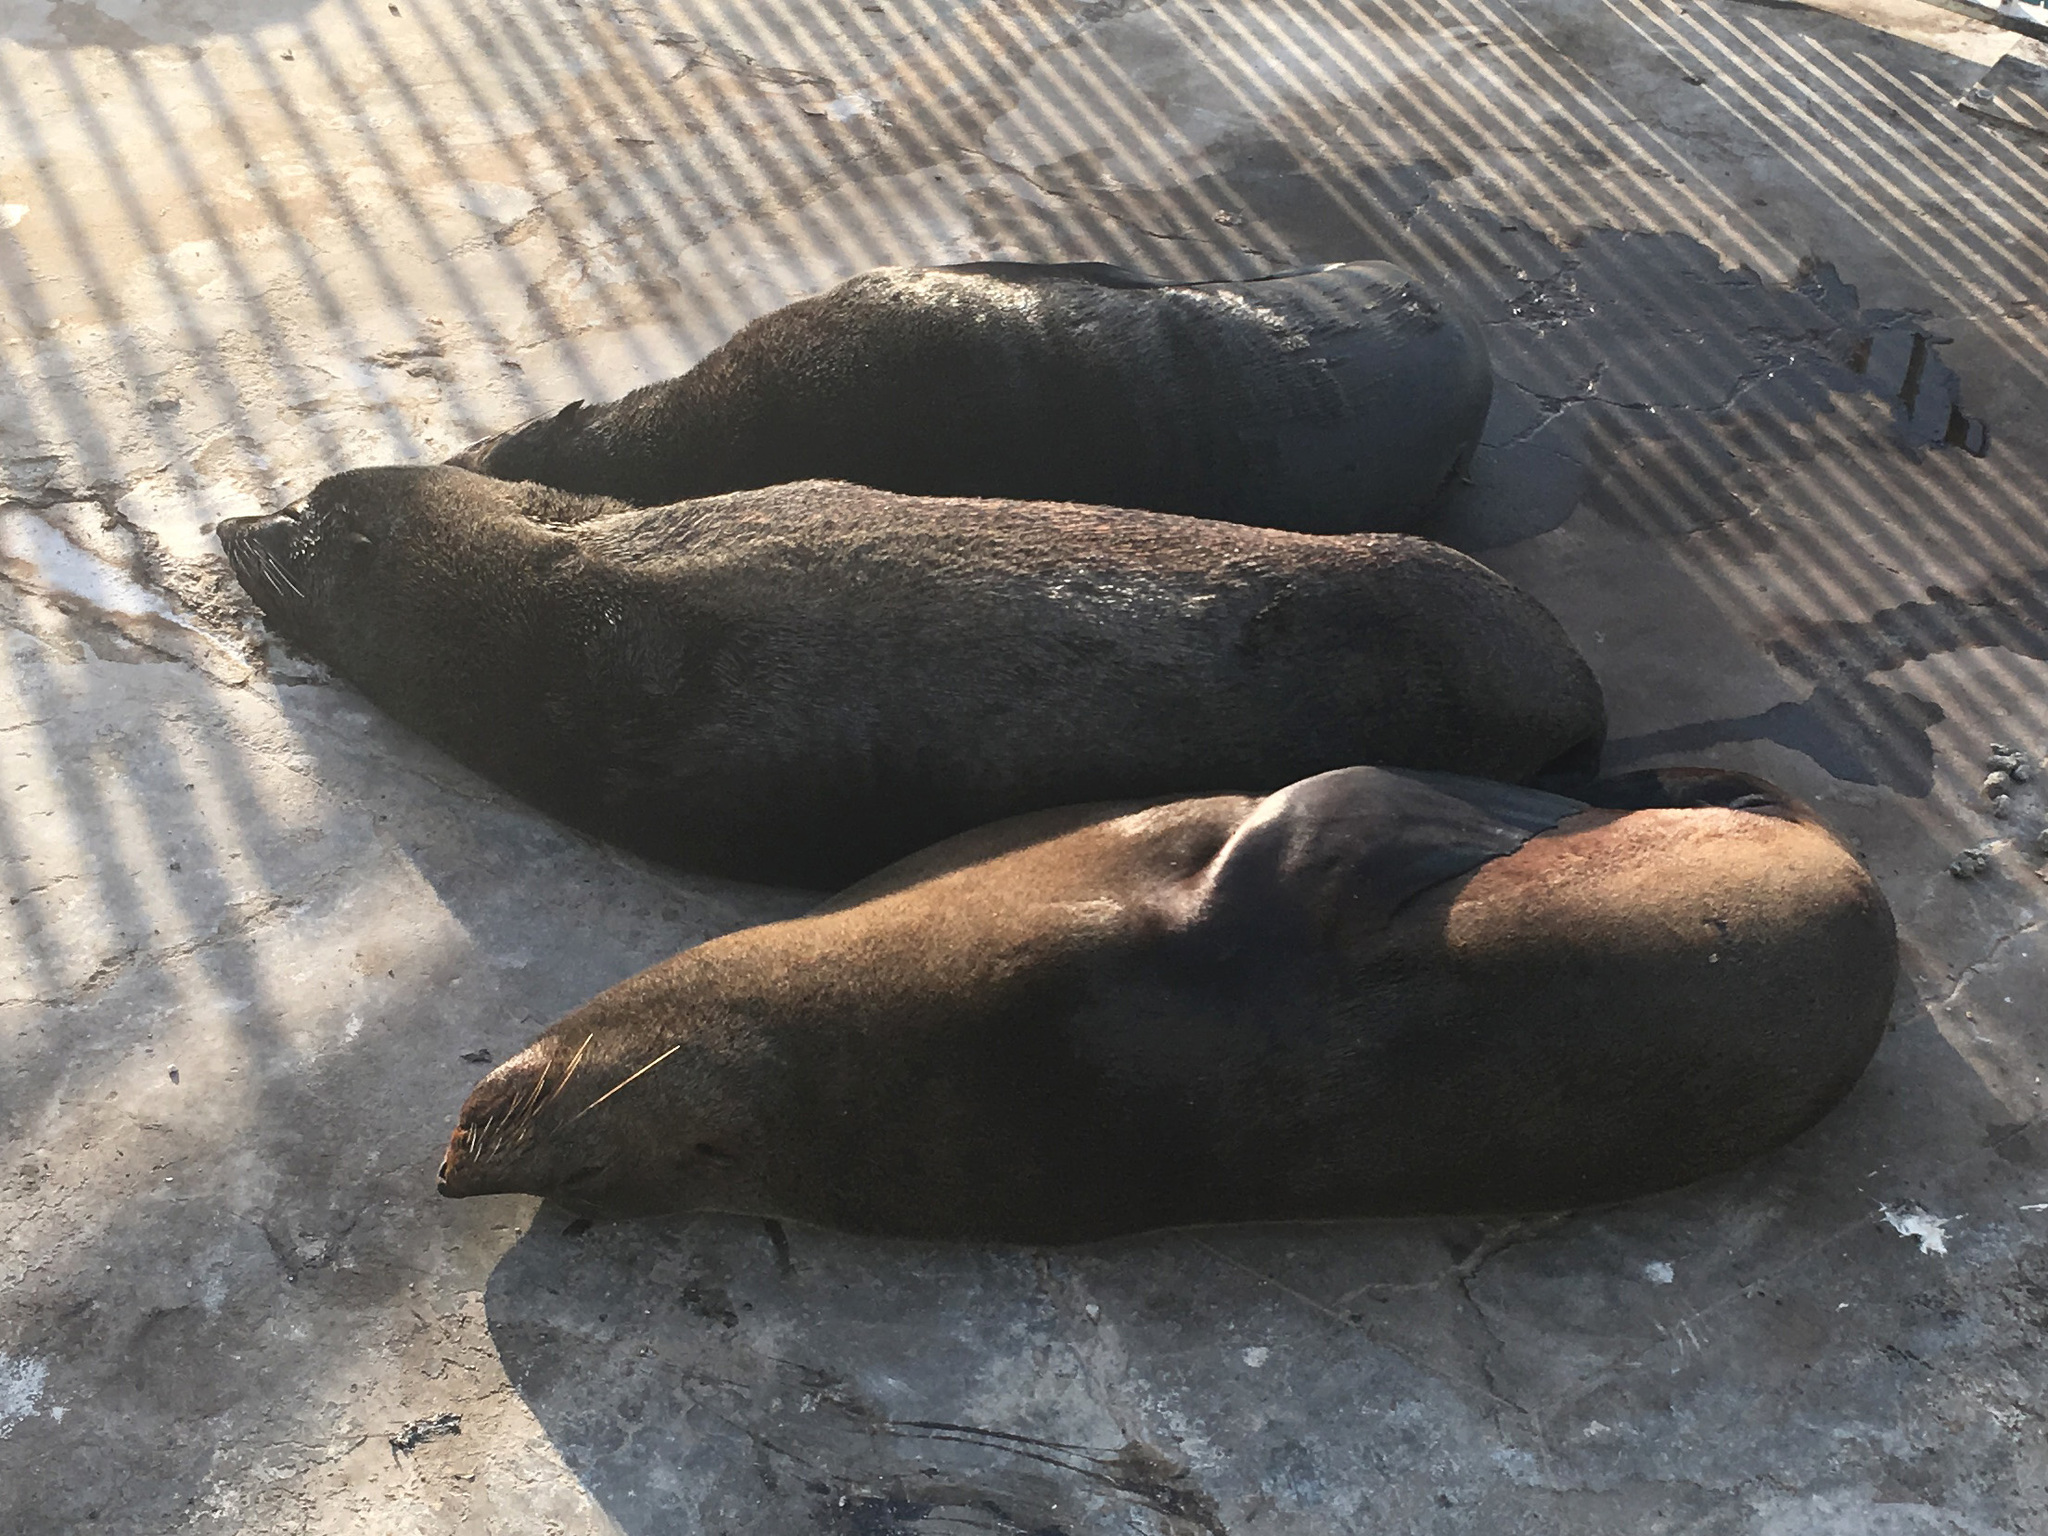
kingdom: Animalia
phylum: Chordata
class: Mammalia
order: Carnivora
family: Otariidae
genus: Arctocephalus
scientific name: Arctocephalus pusillus
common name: Brown fur seal
